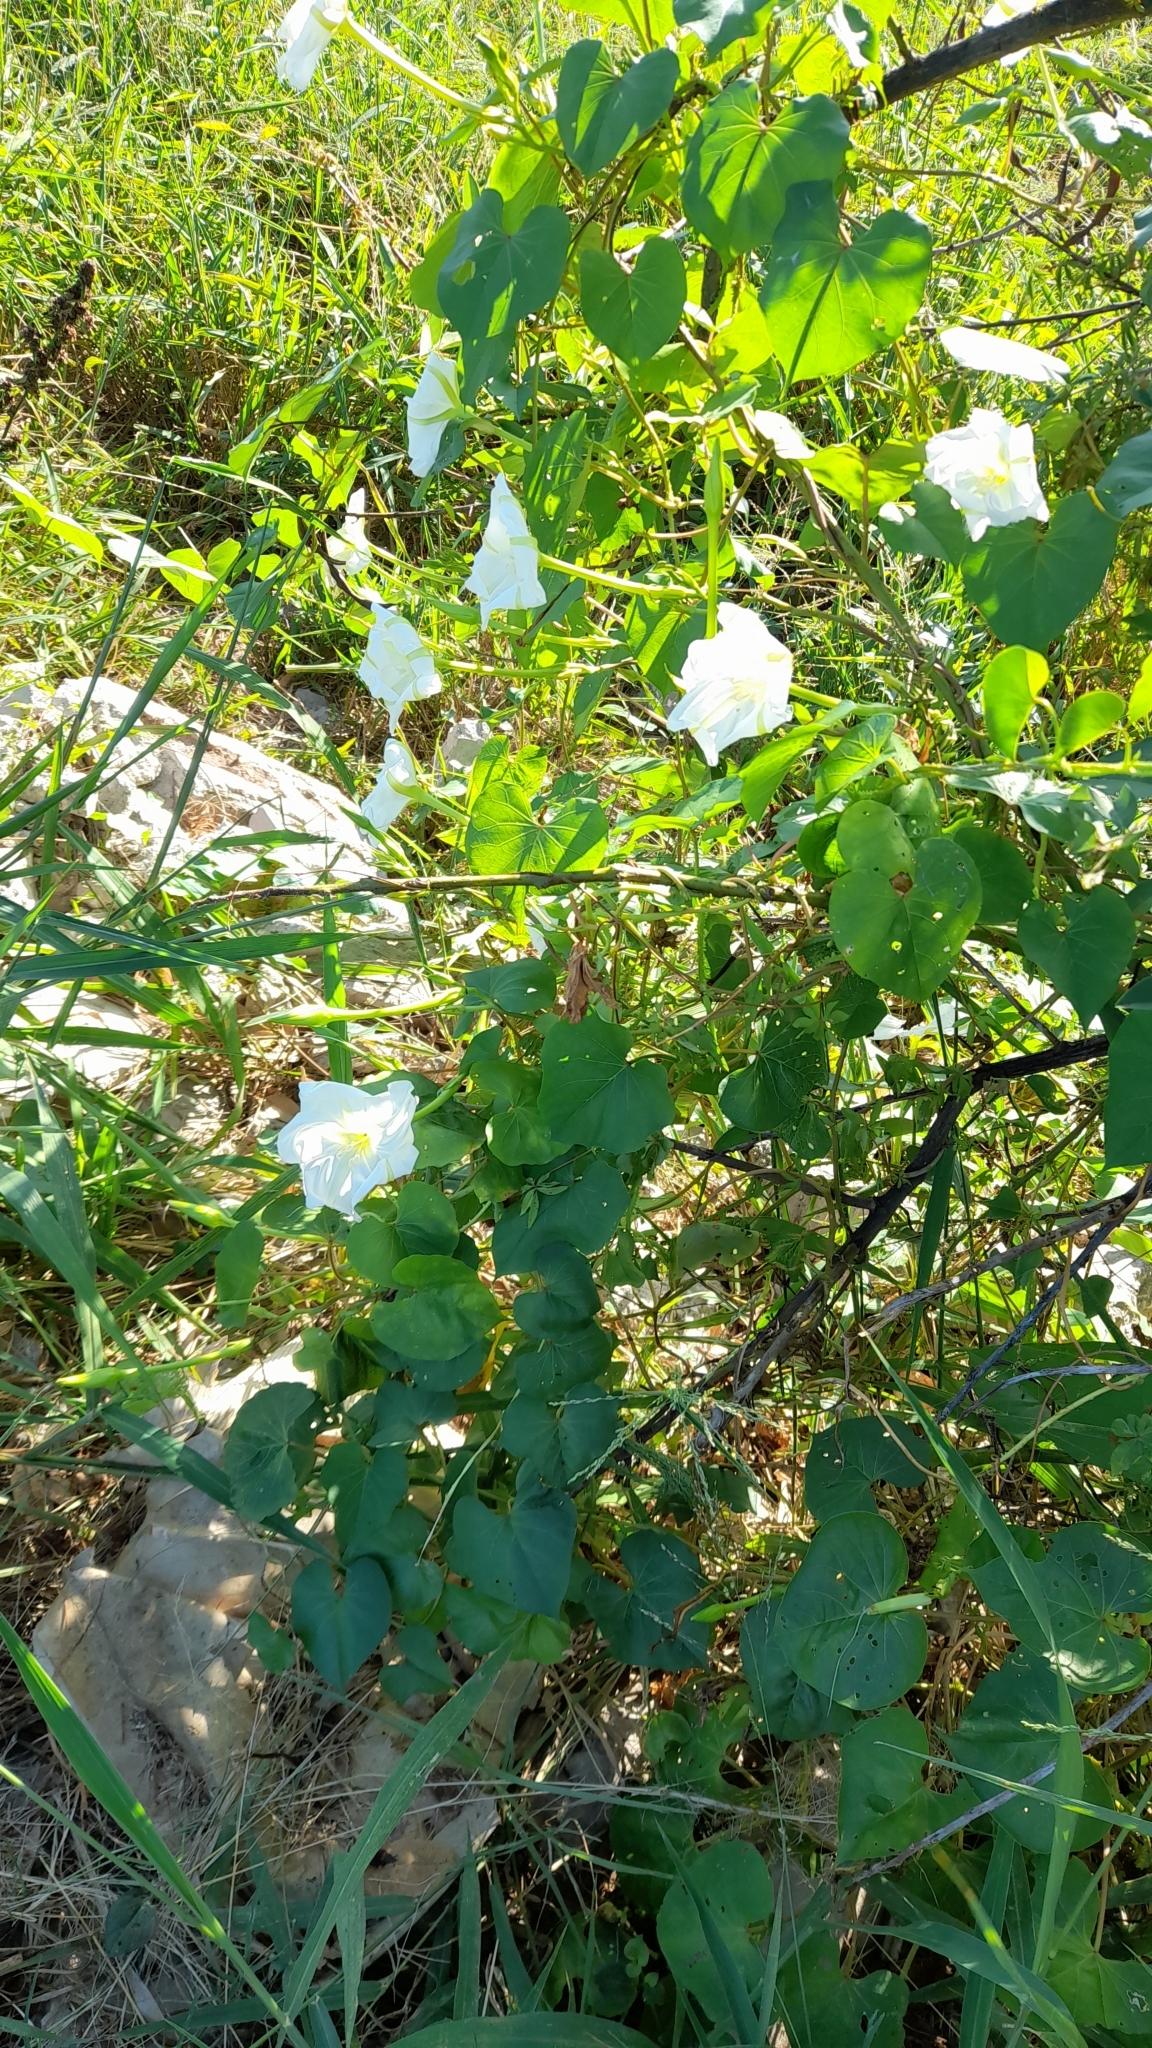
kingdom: Plantae
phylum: Tracheophyta
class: Magnoliopsida
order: Solanales
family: Convolvulaceae
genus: Ipomoea
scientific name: Ipomoea alba
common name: Moonflower
